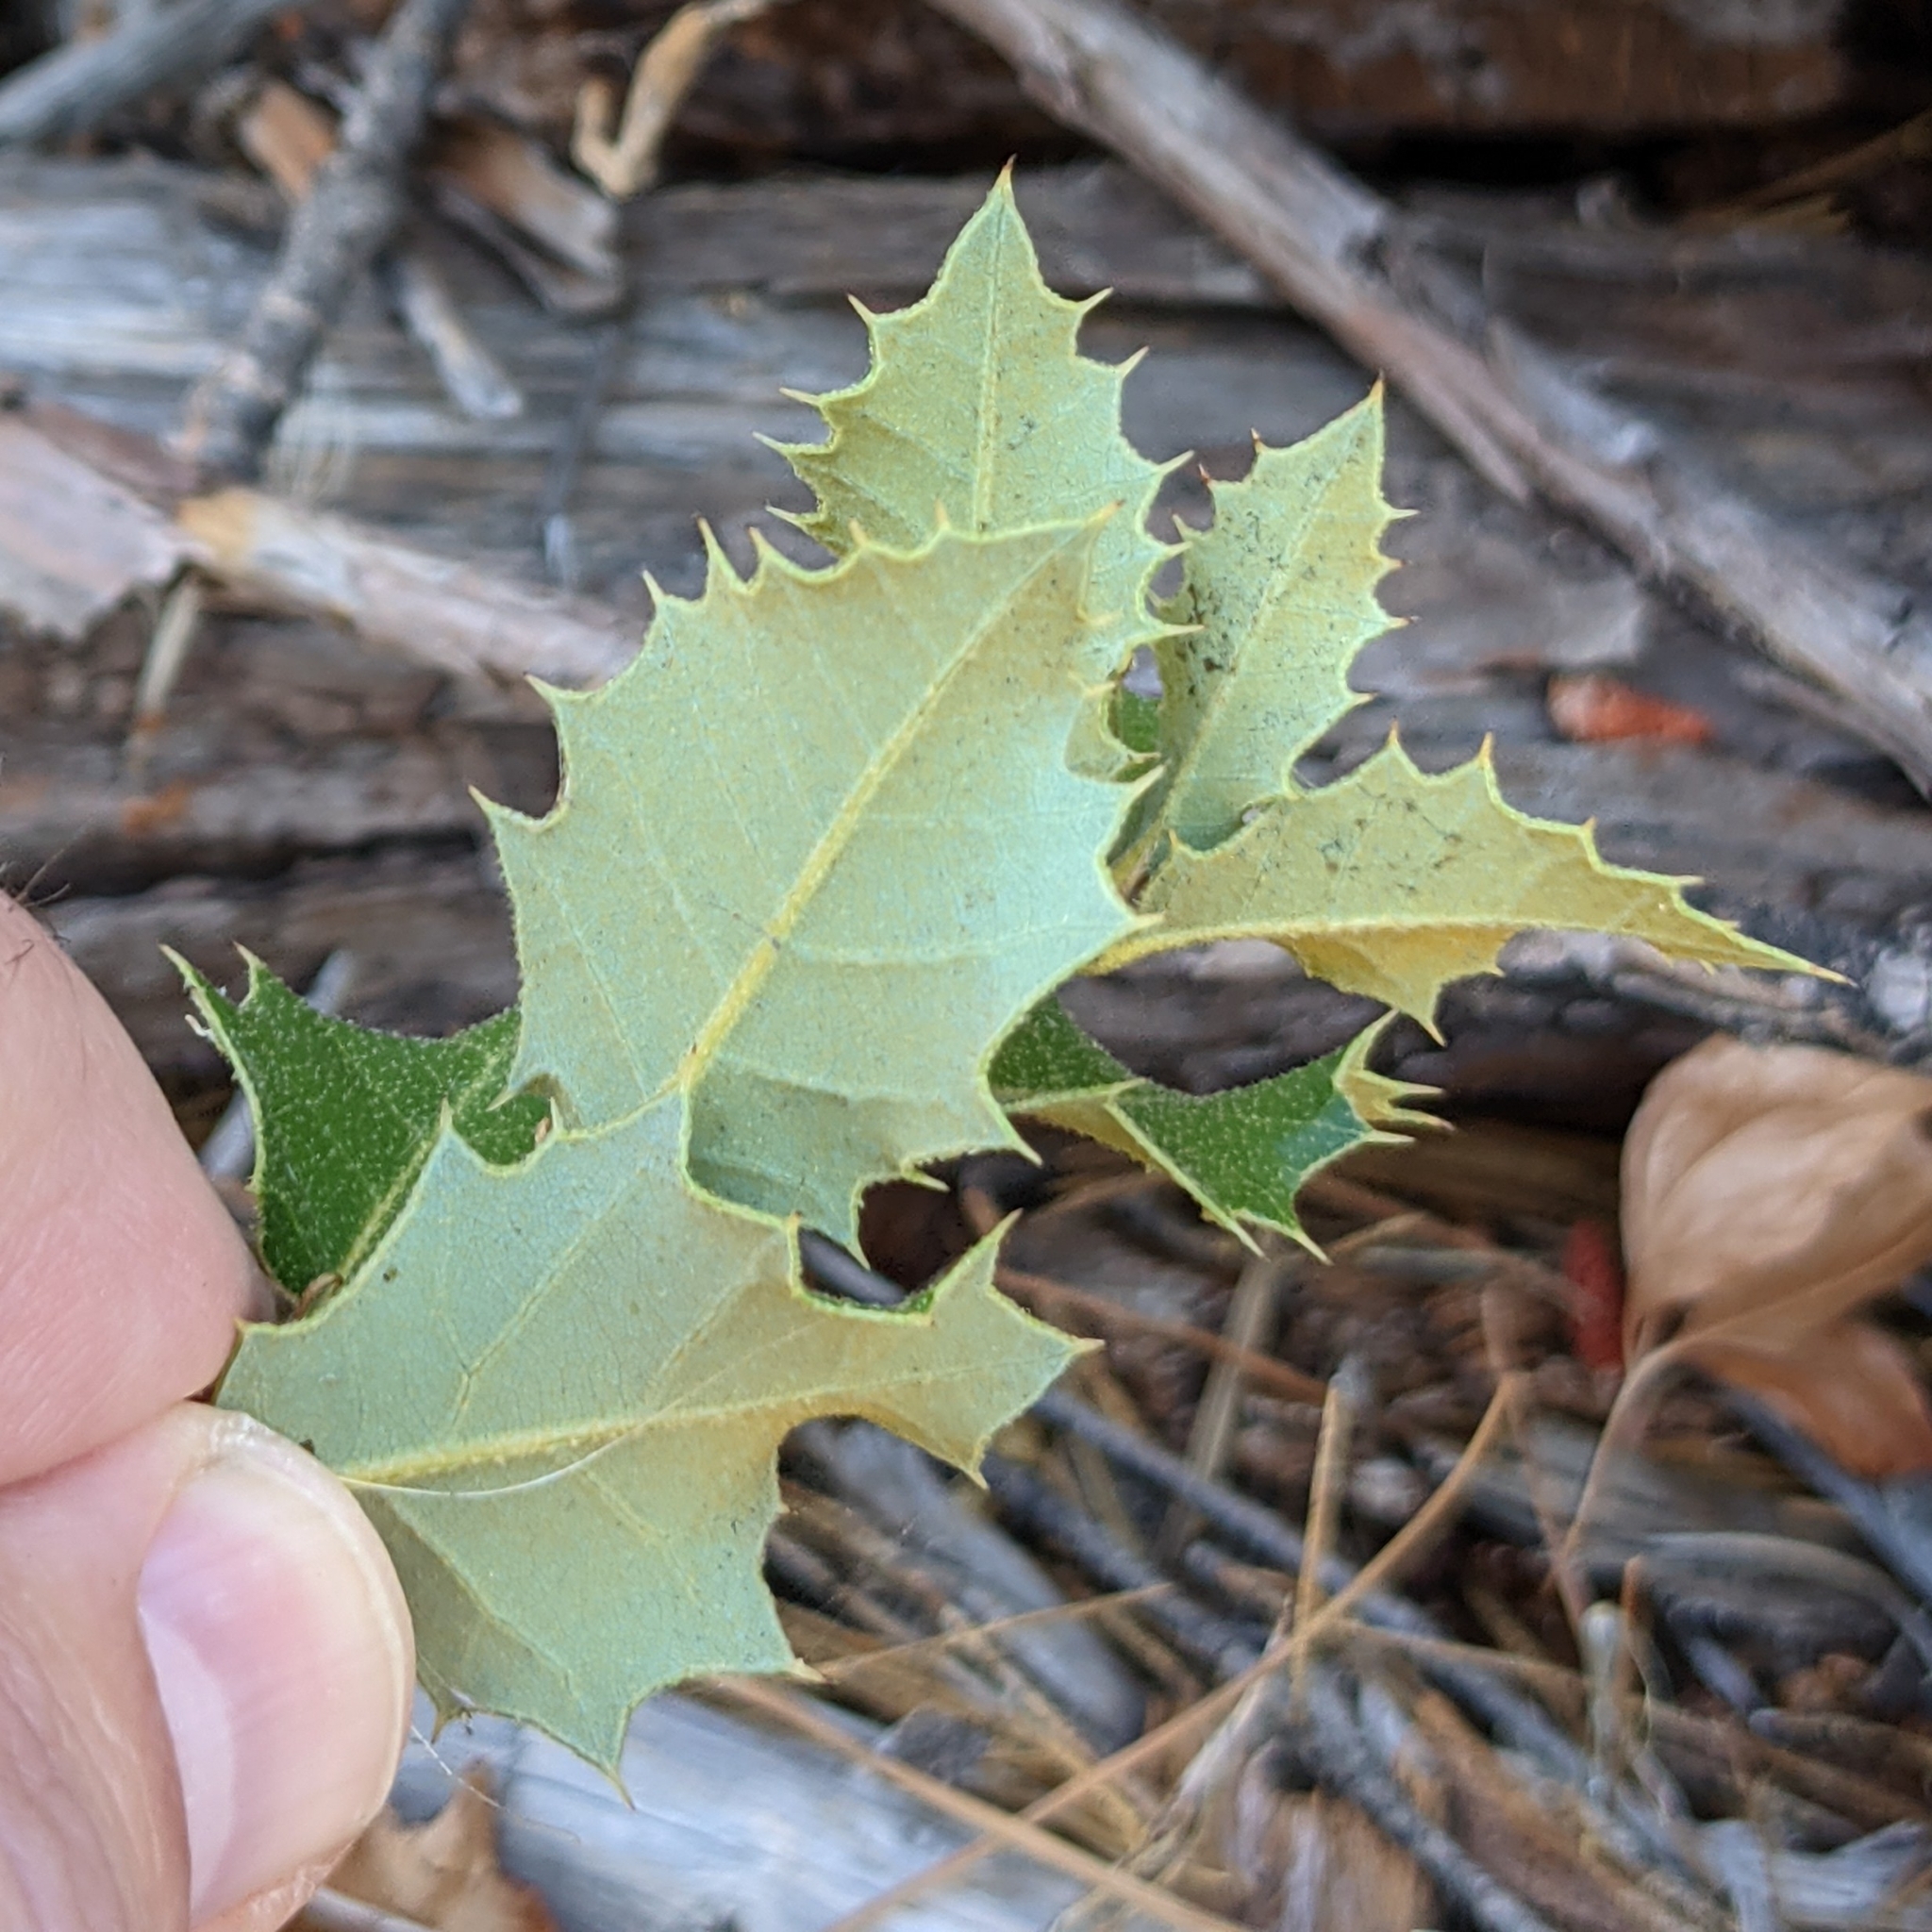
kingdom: Plantae
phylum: Tracheophyta
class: Magnoliopsida
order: Fagales
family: Fagaceae
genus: Quercus
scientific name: Quercus chrysolepis
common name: Canyon live oak
